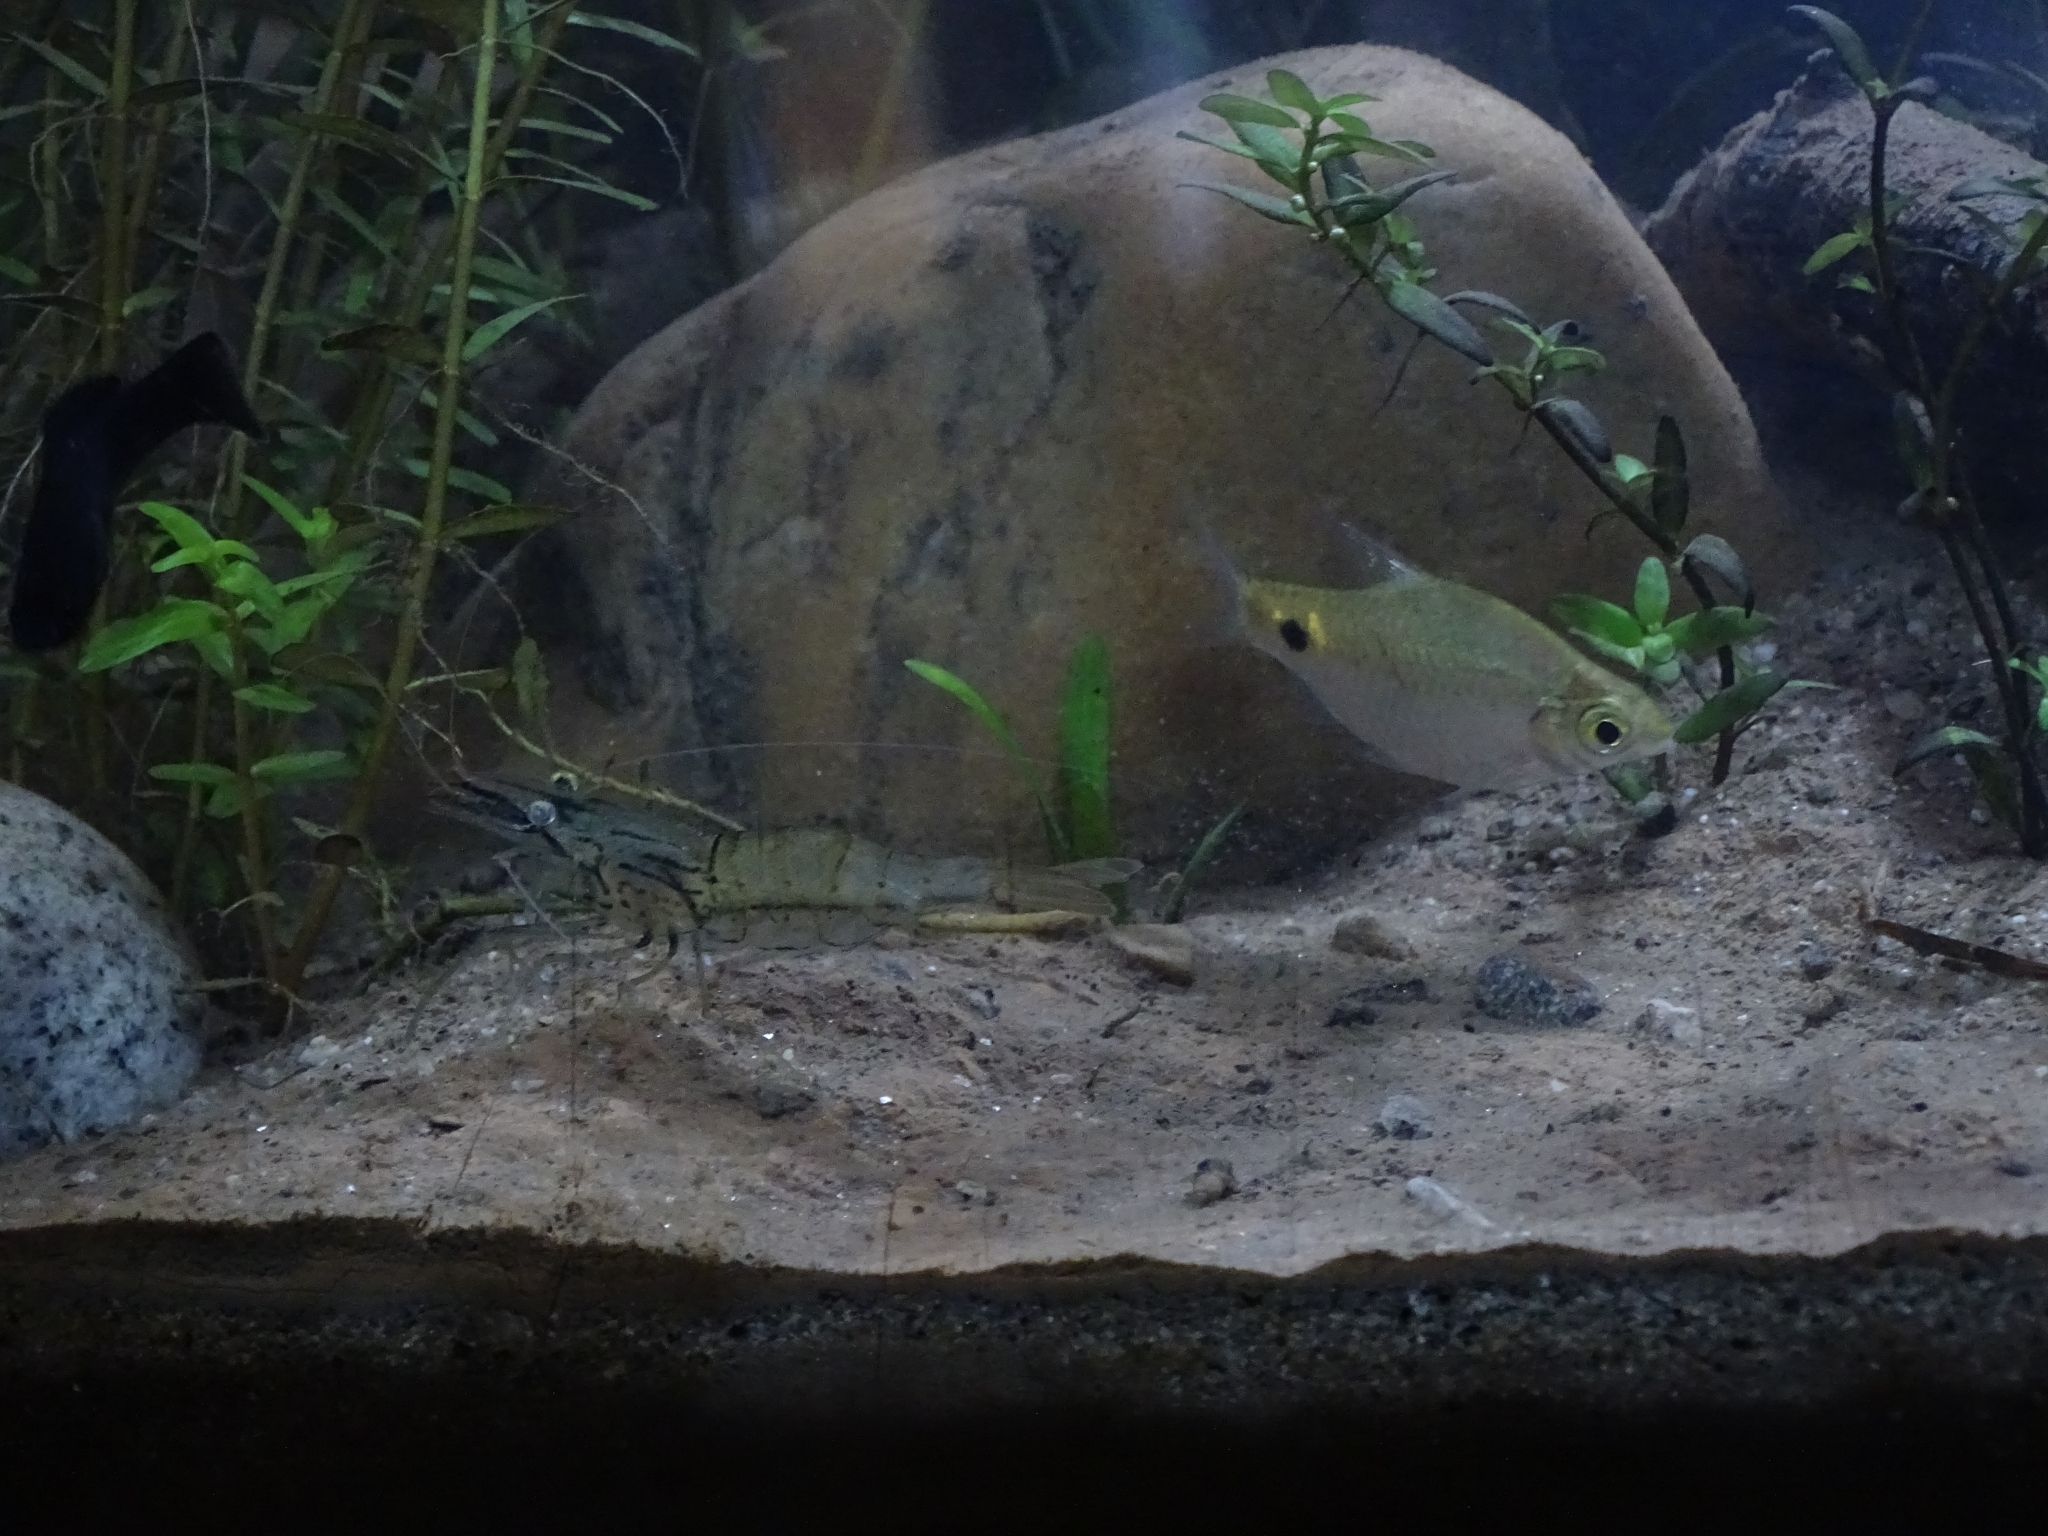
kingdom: Animalia
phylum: Chordata
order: Cypriniformes
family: Cyprinidae
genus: Puntius
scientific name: Puntius terio
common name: Onespot barb
